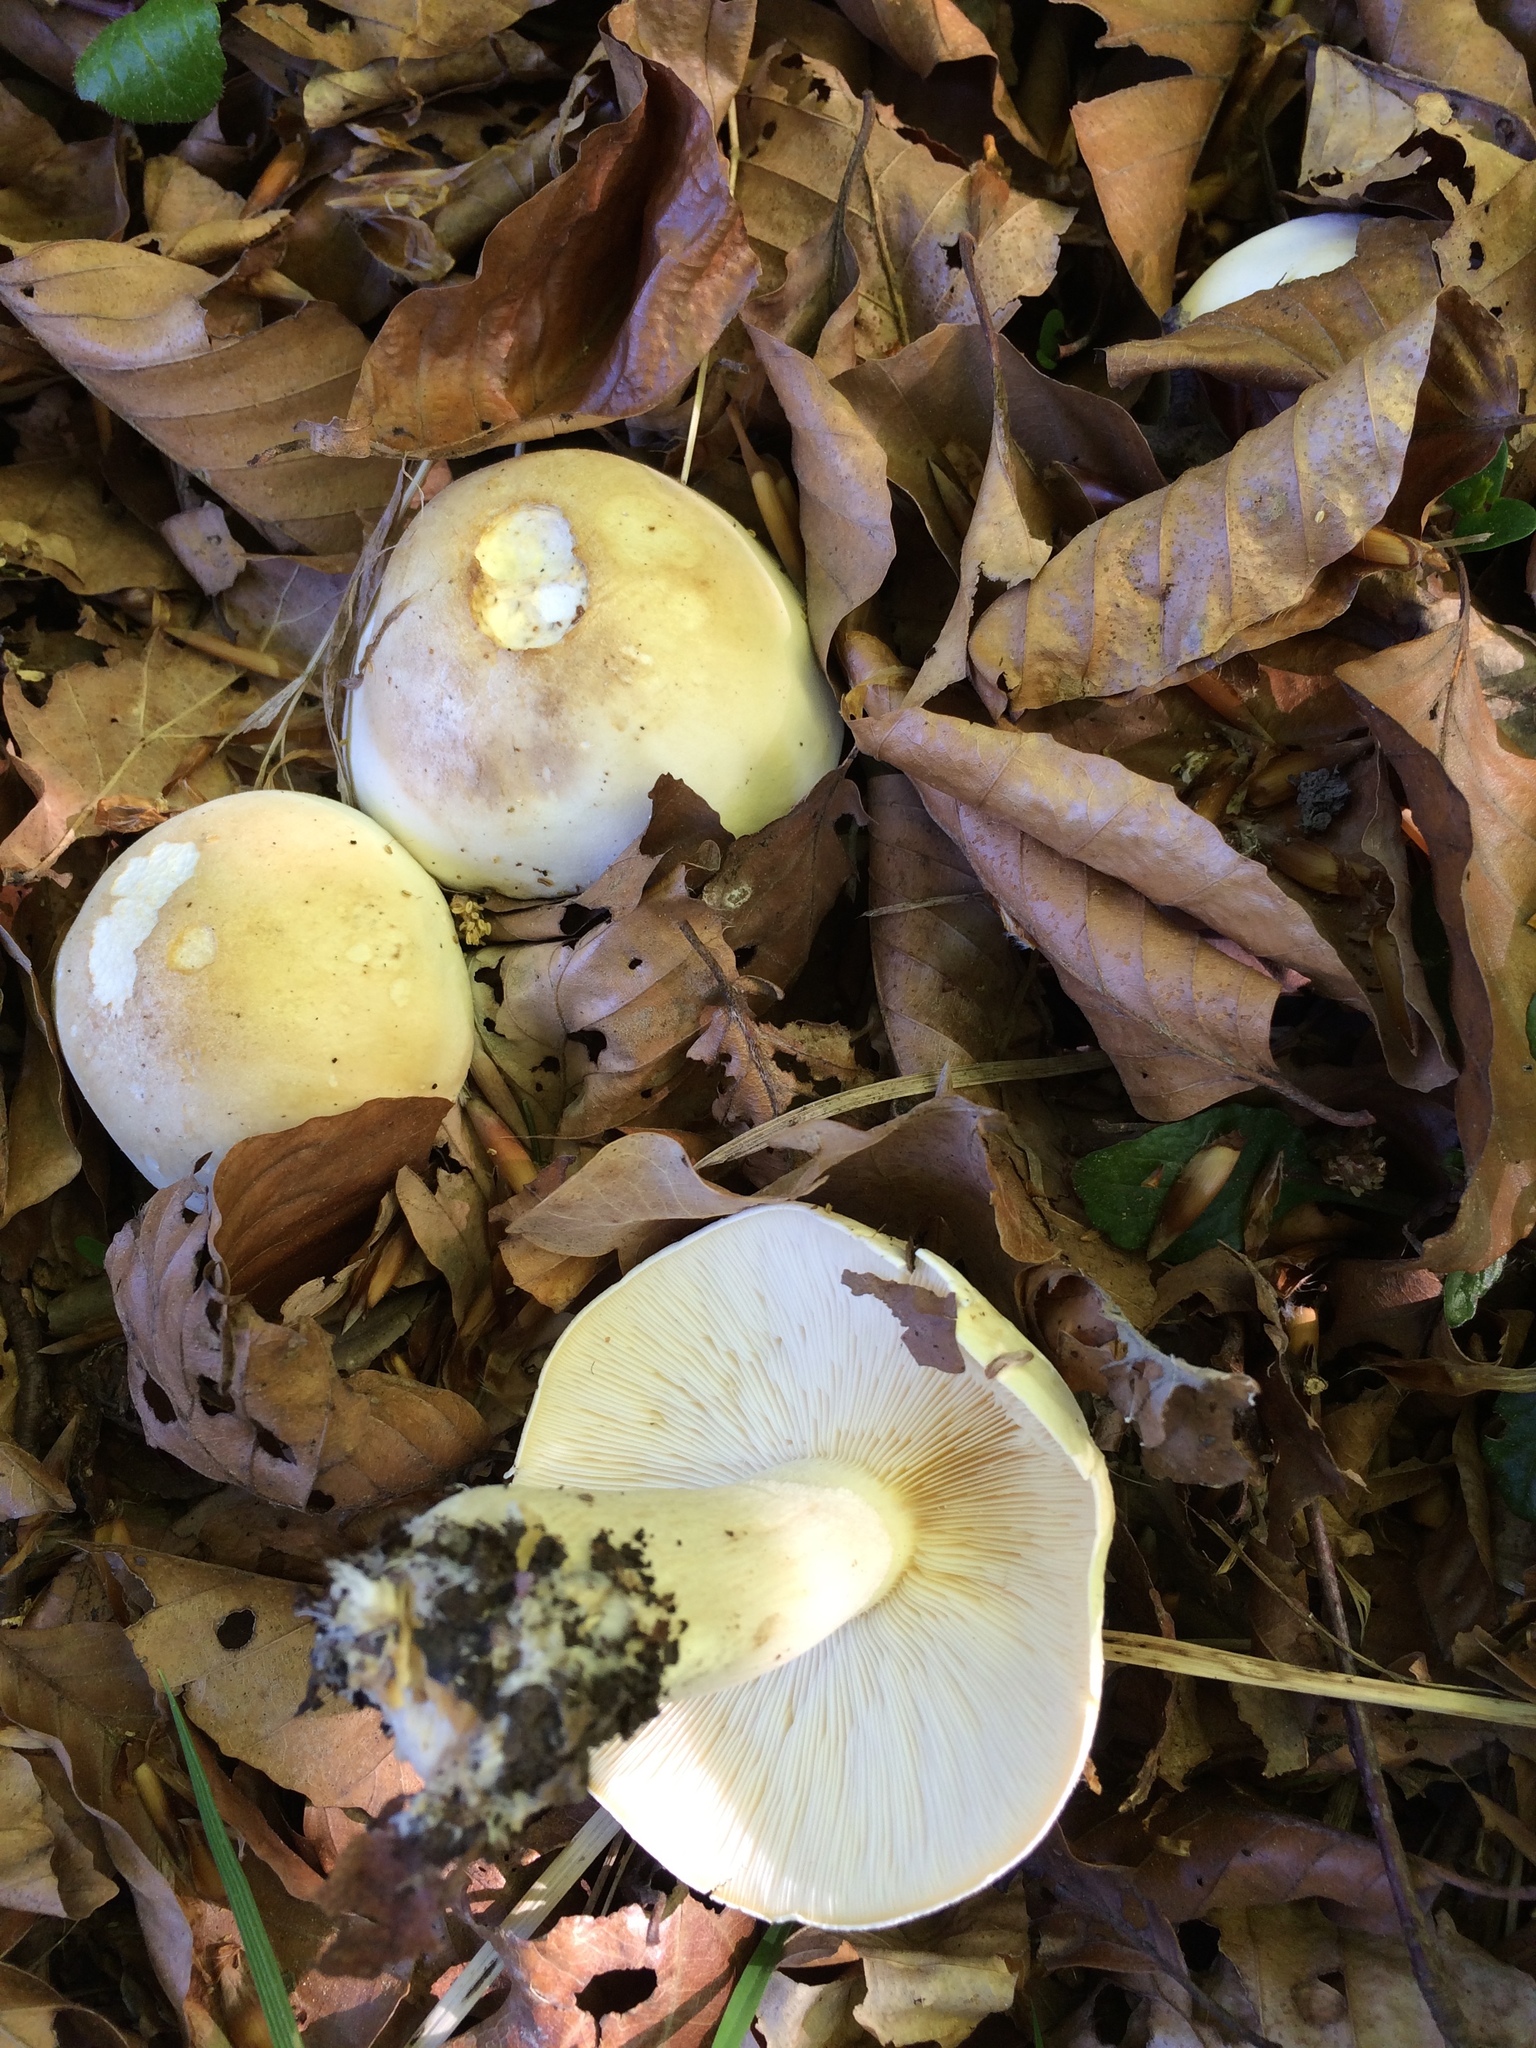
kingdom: Fungi
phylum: Basidiomycota
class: Agaricomycetes
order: Agaricales
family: Lyophyllaceae
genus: Calocybe
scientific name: Calocybe gambosa
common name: St. george's mushroom
